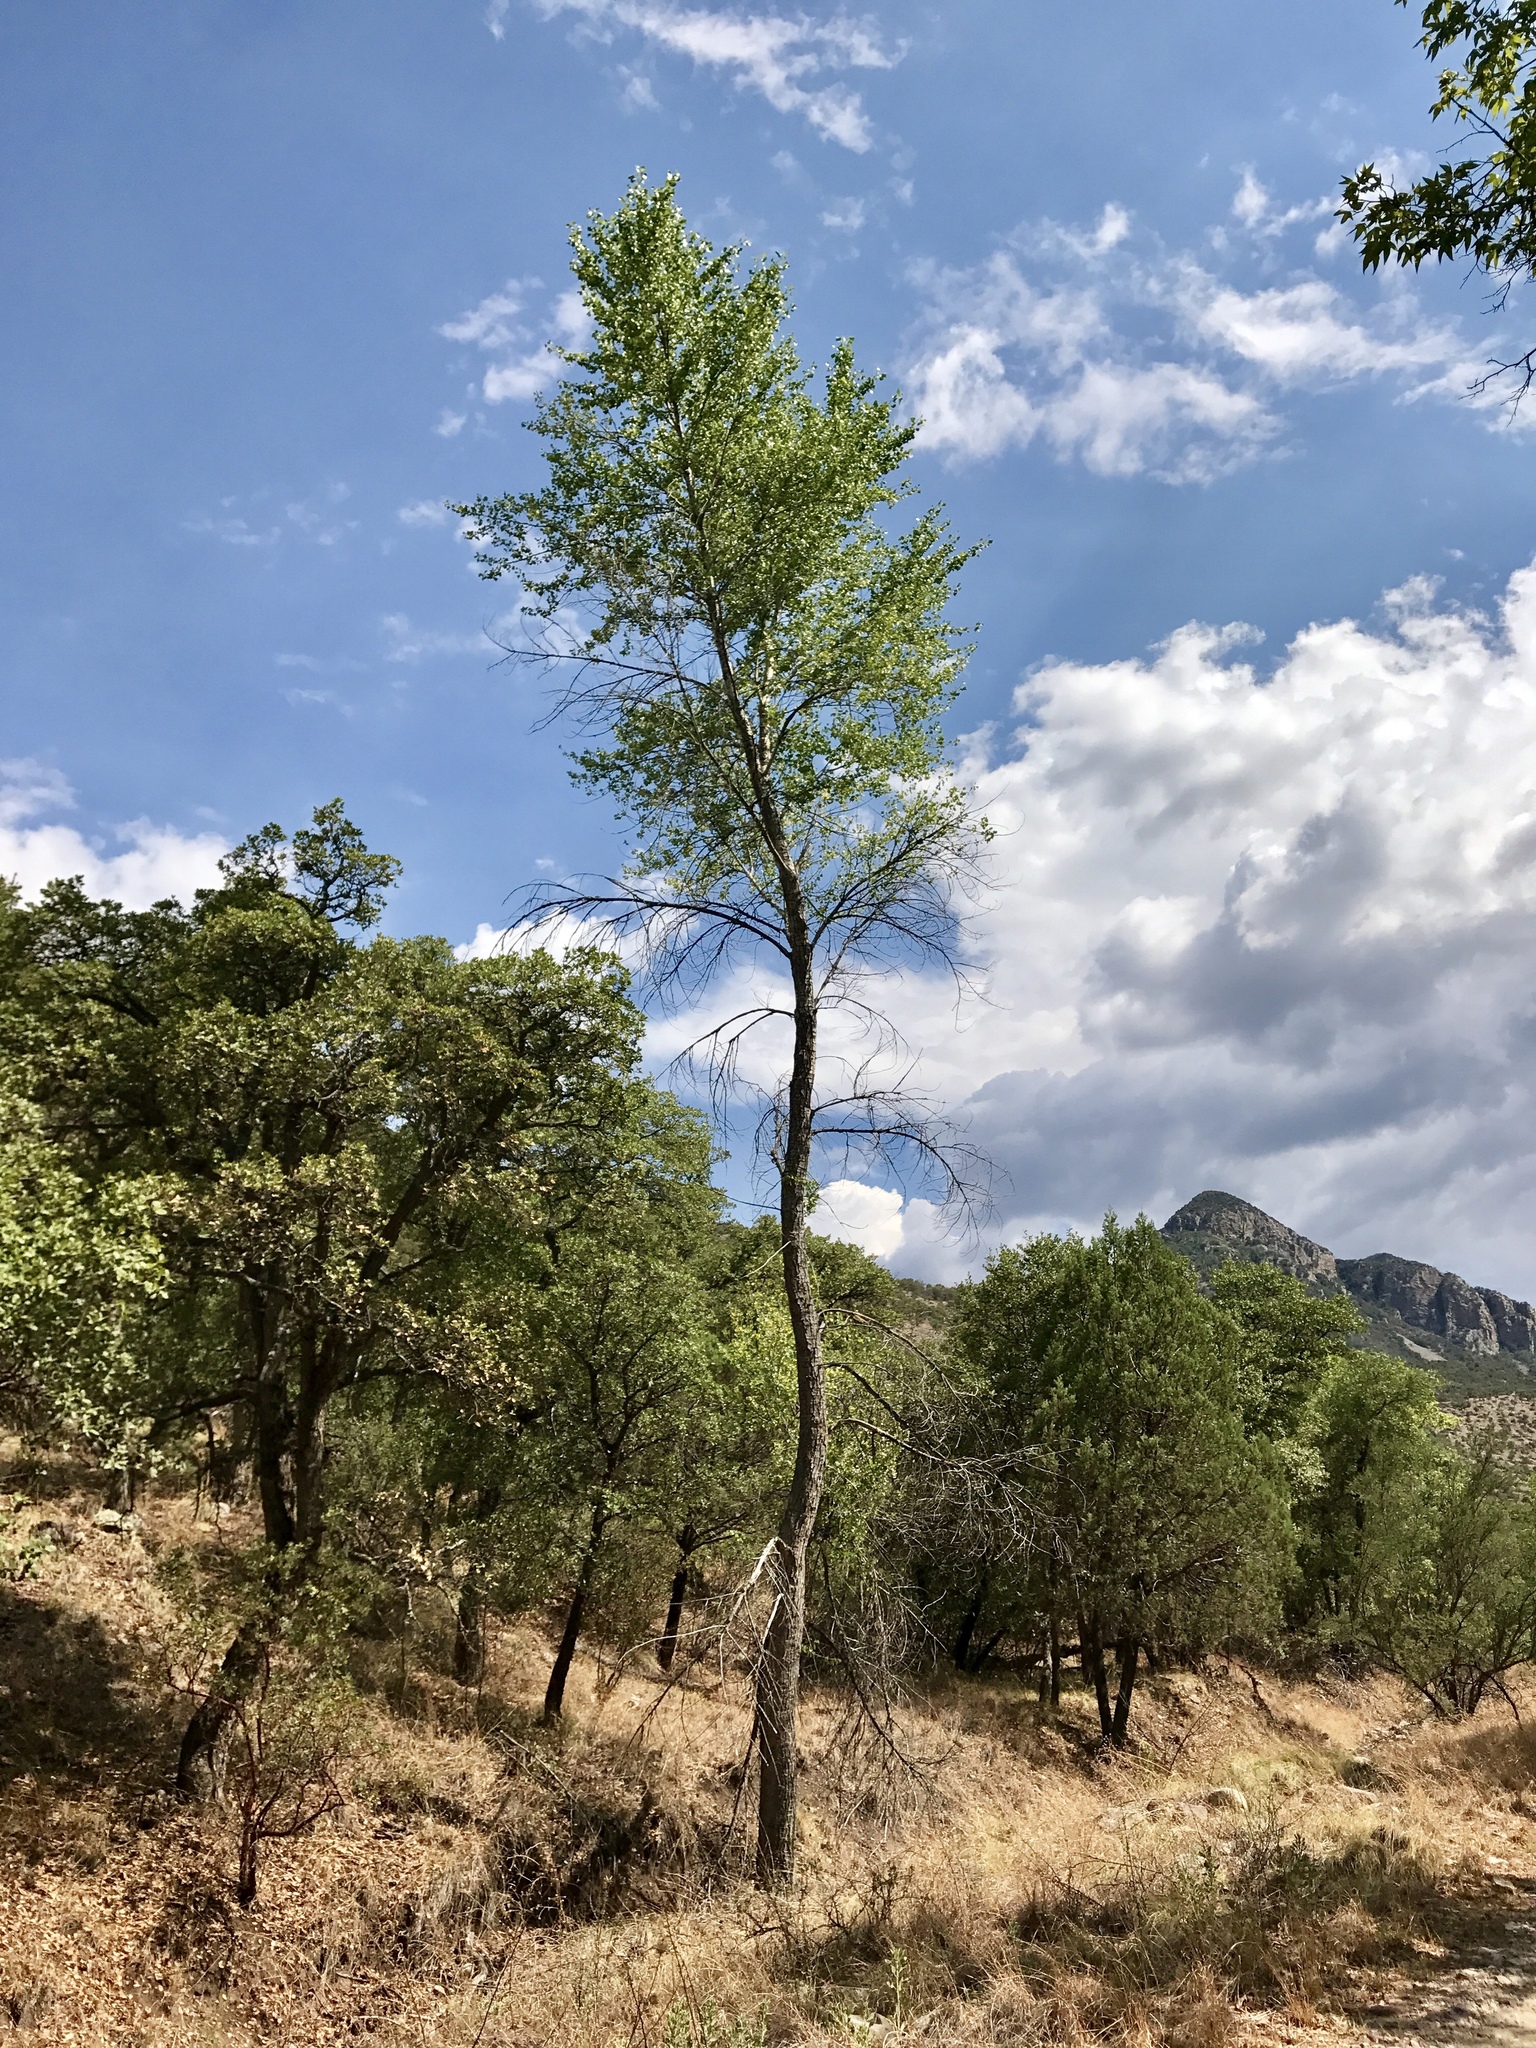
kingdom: Plantae
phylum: Tracheophyta
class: Magnoliopsida
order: Malpighiales
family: Salicaceae
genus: Populus
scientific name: Populus fremontii
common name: Fremont's cottonwood
